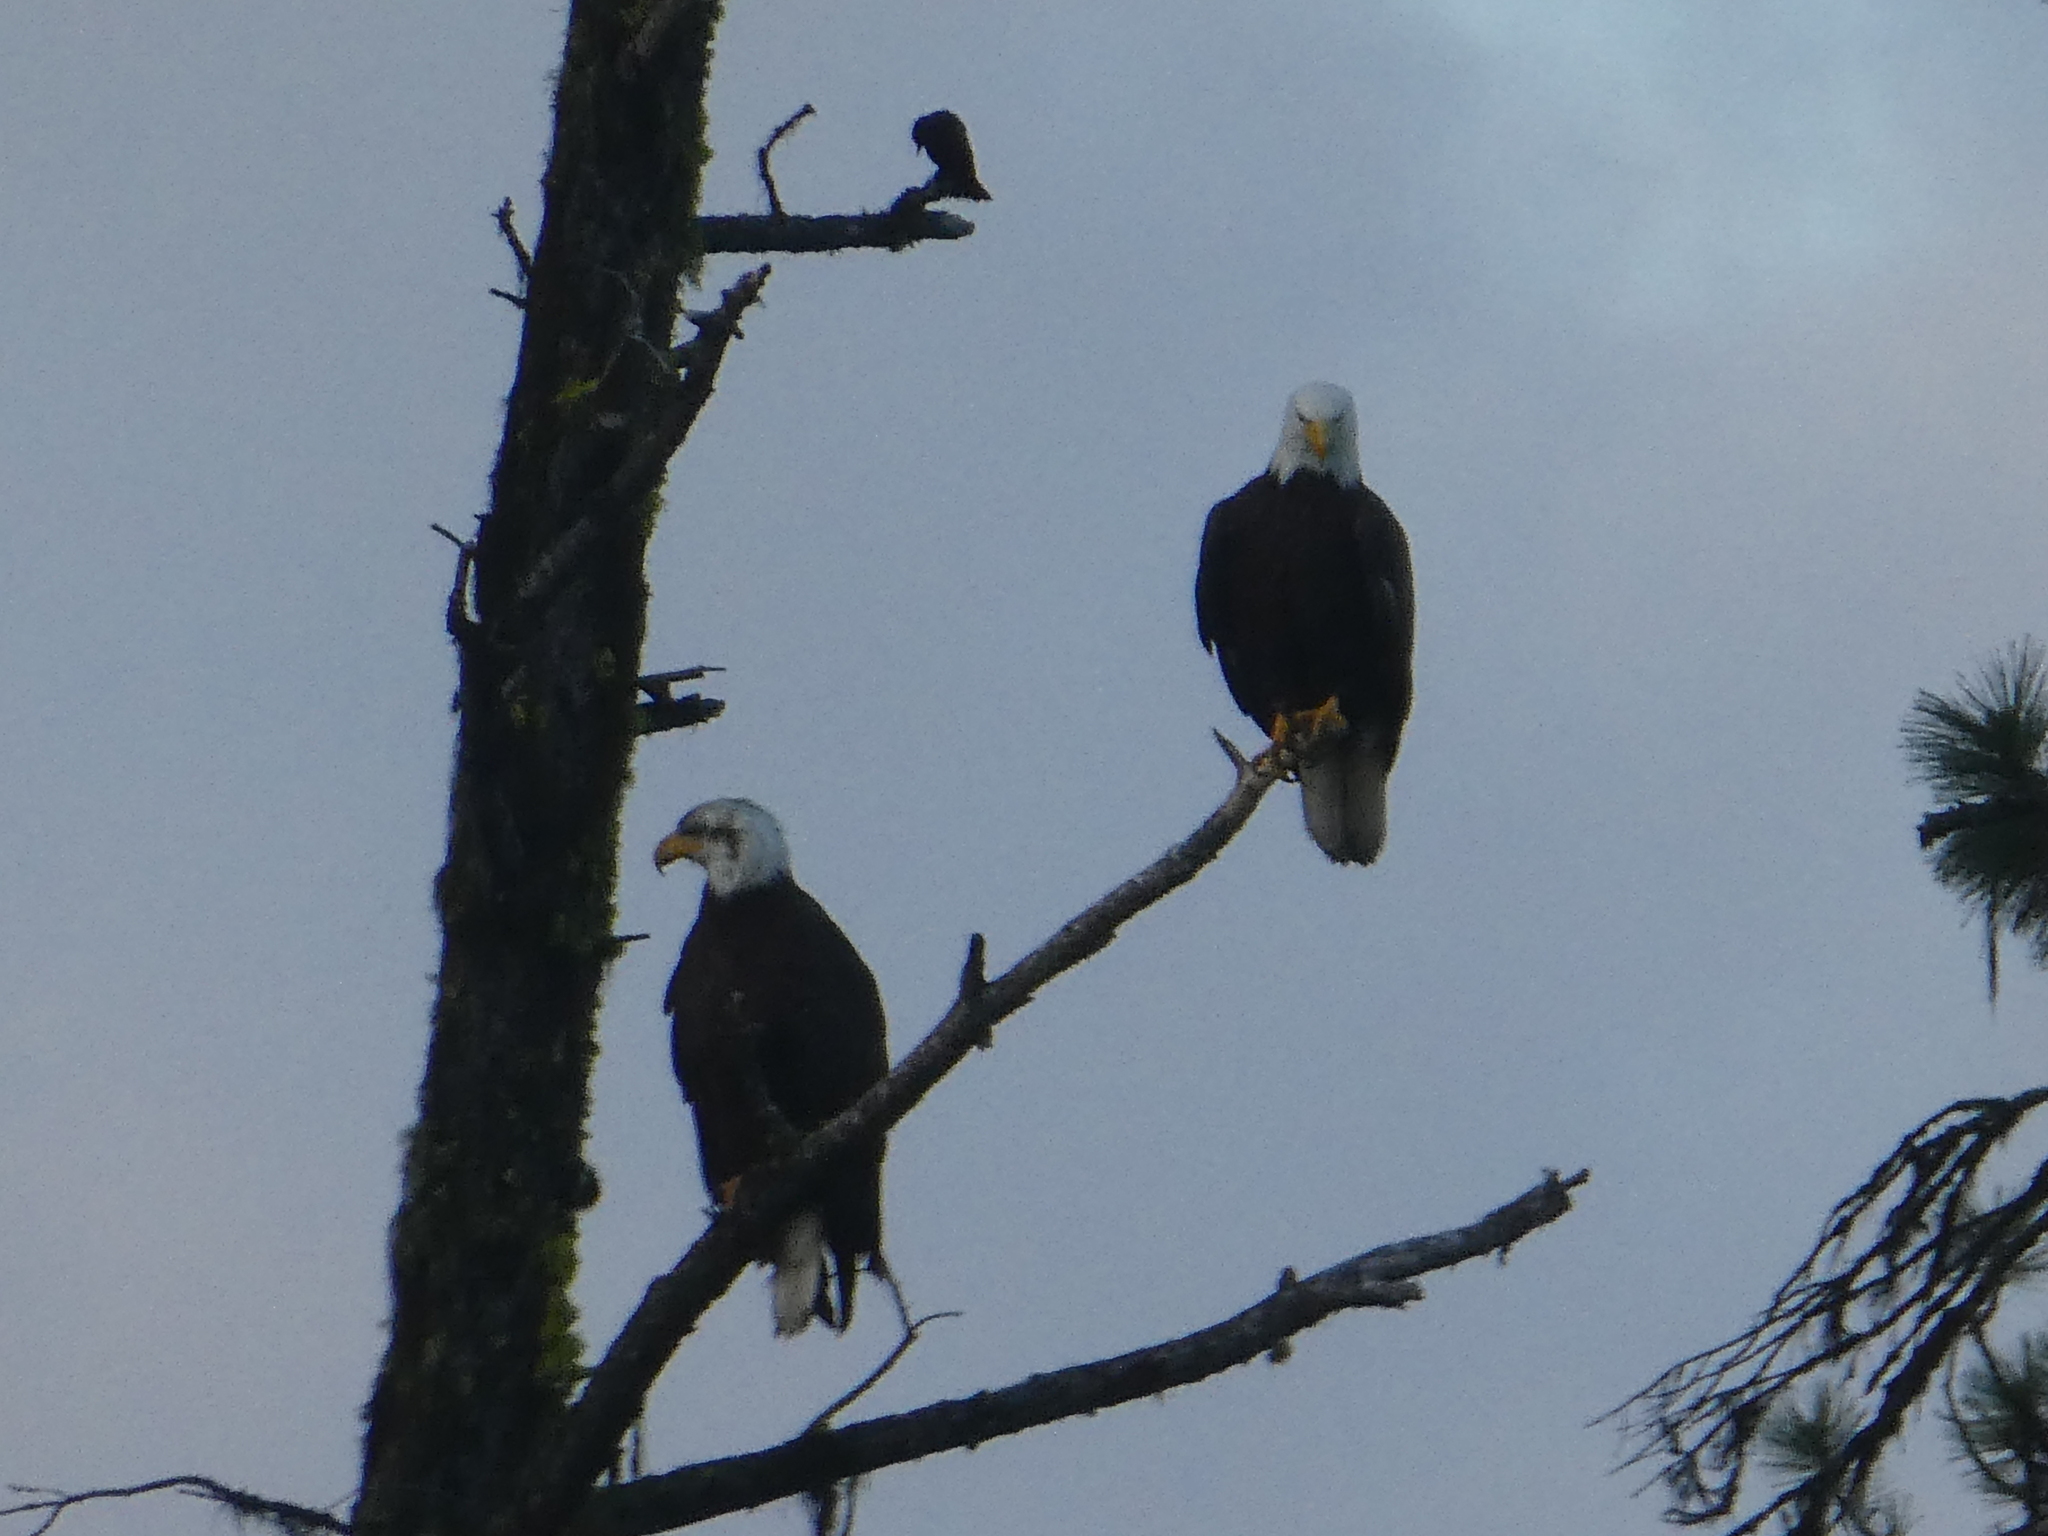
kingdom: Animalia
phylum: Chordata
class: Aves
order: Accipitriformes
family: Accipitridae
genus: Haliaeetus
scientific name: Haliaeetus leucocephalus
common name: Bald eagle
